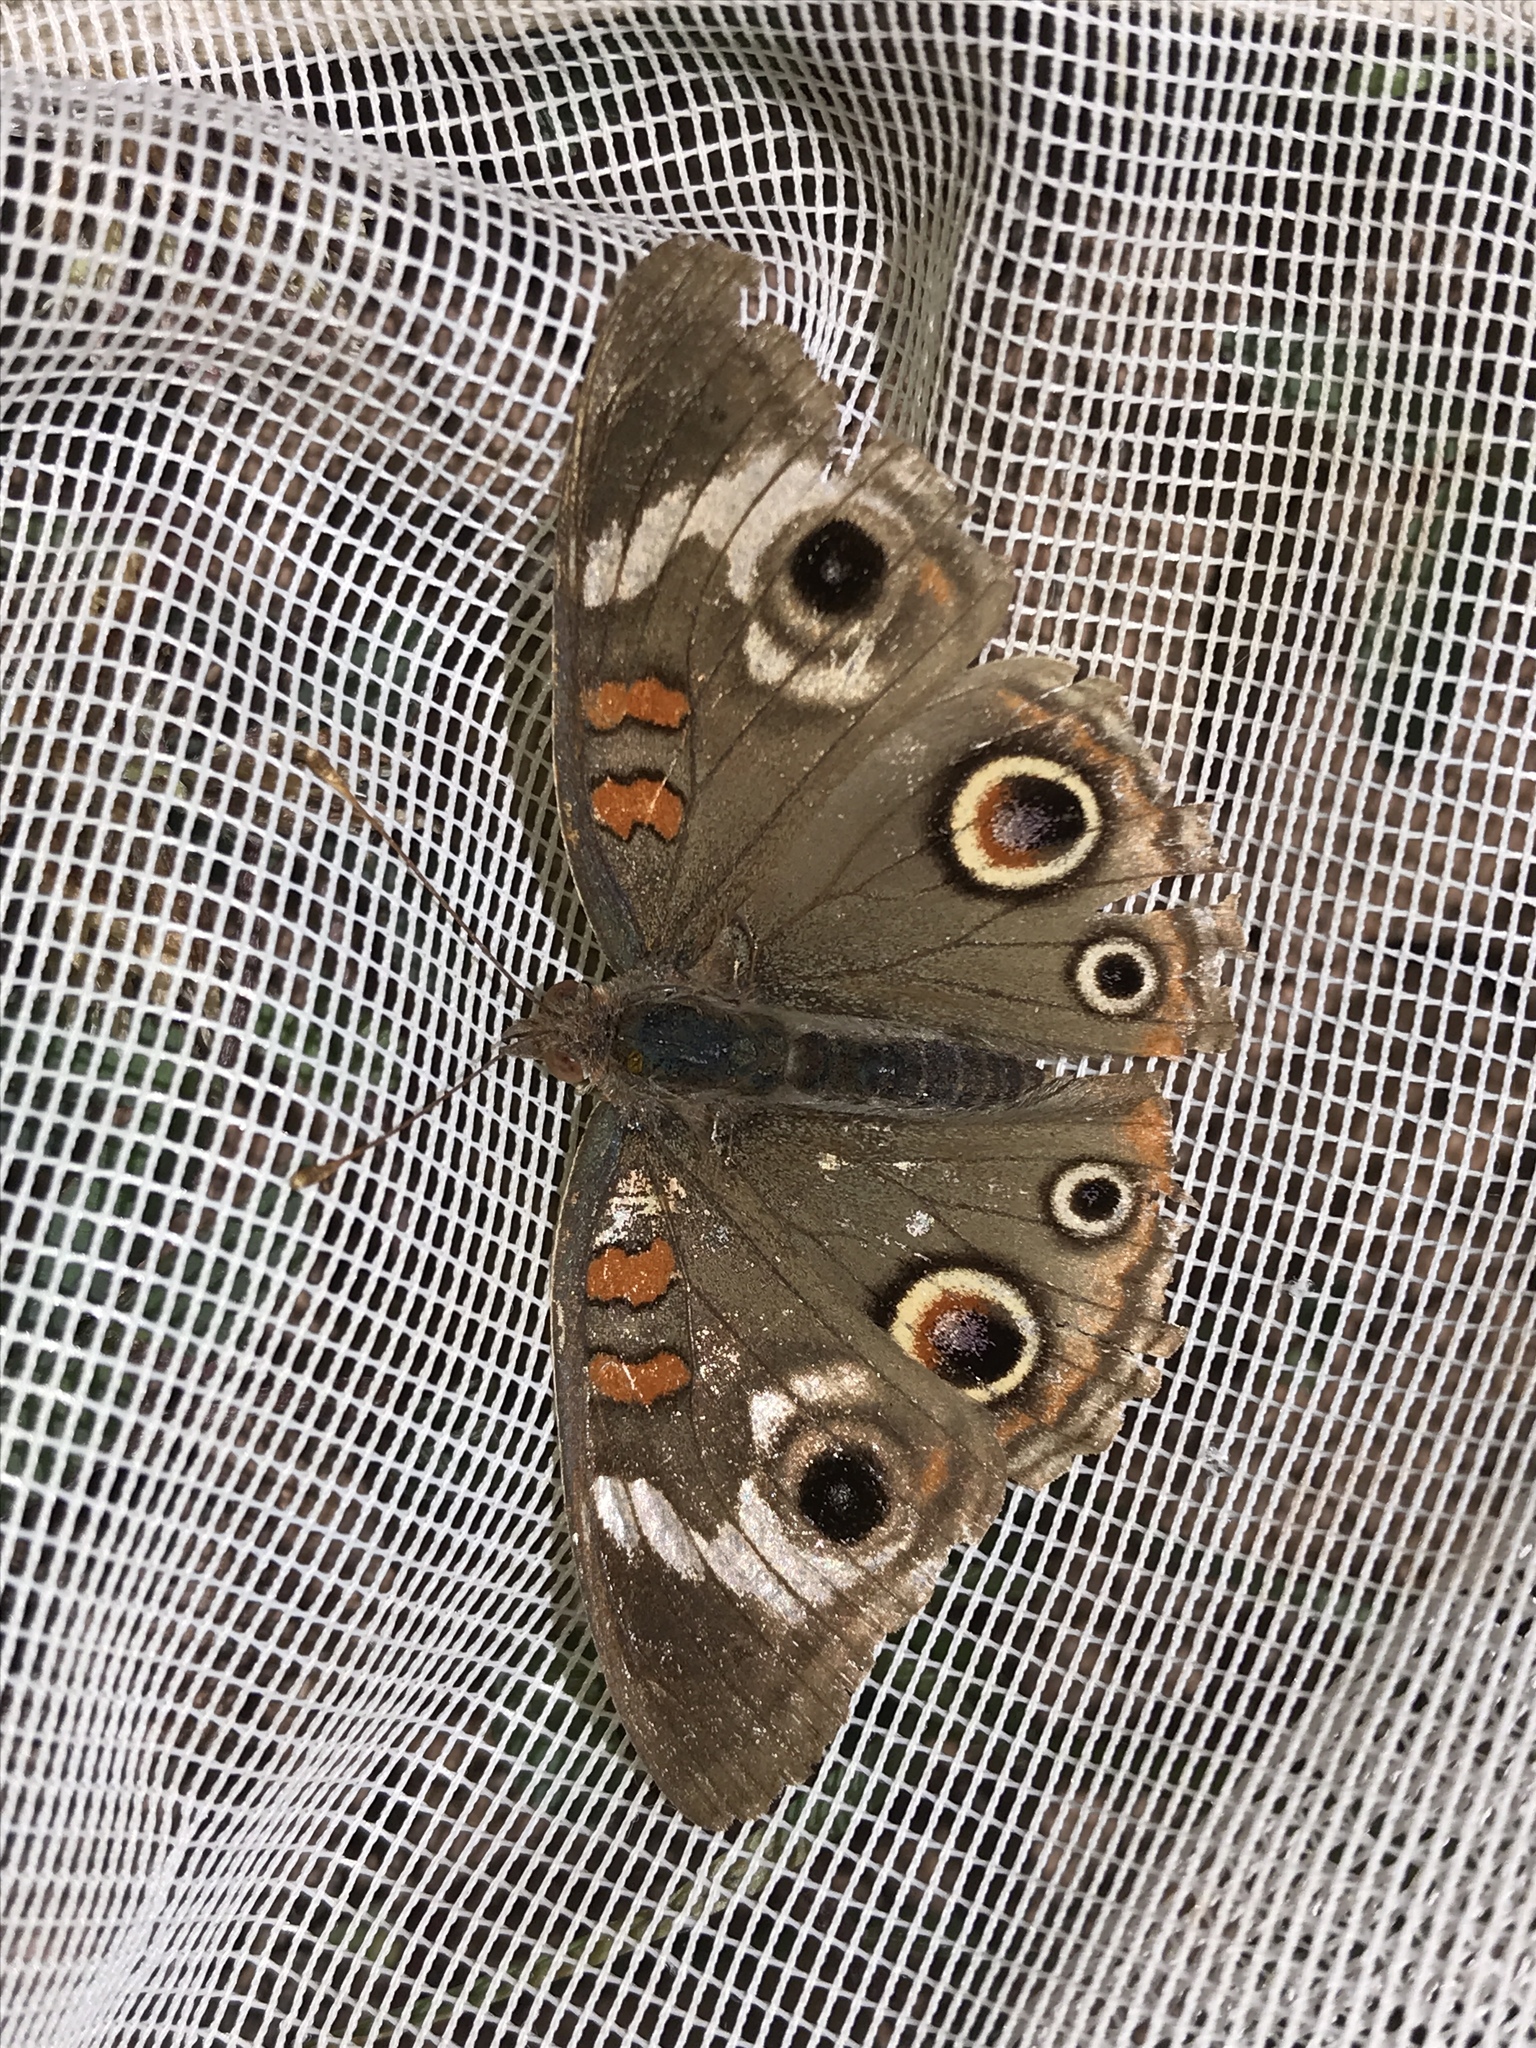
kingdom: Animalia
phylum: Arthropoda
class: Insecta
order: Lepidoptera
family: Nymphalidae
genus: Junonia
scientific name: Junonia grisea
